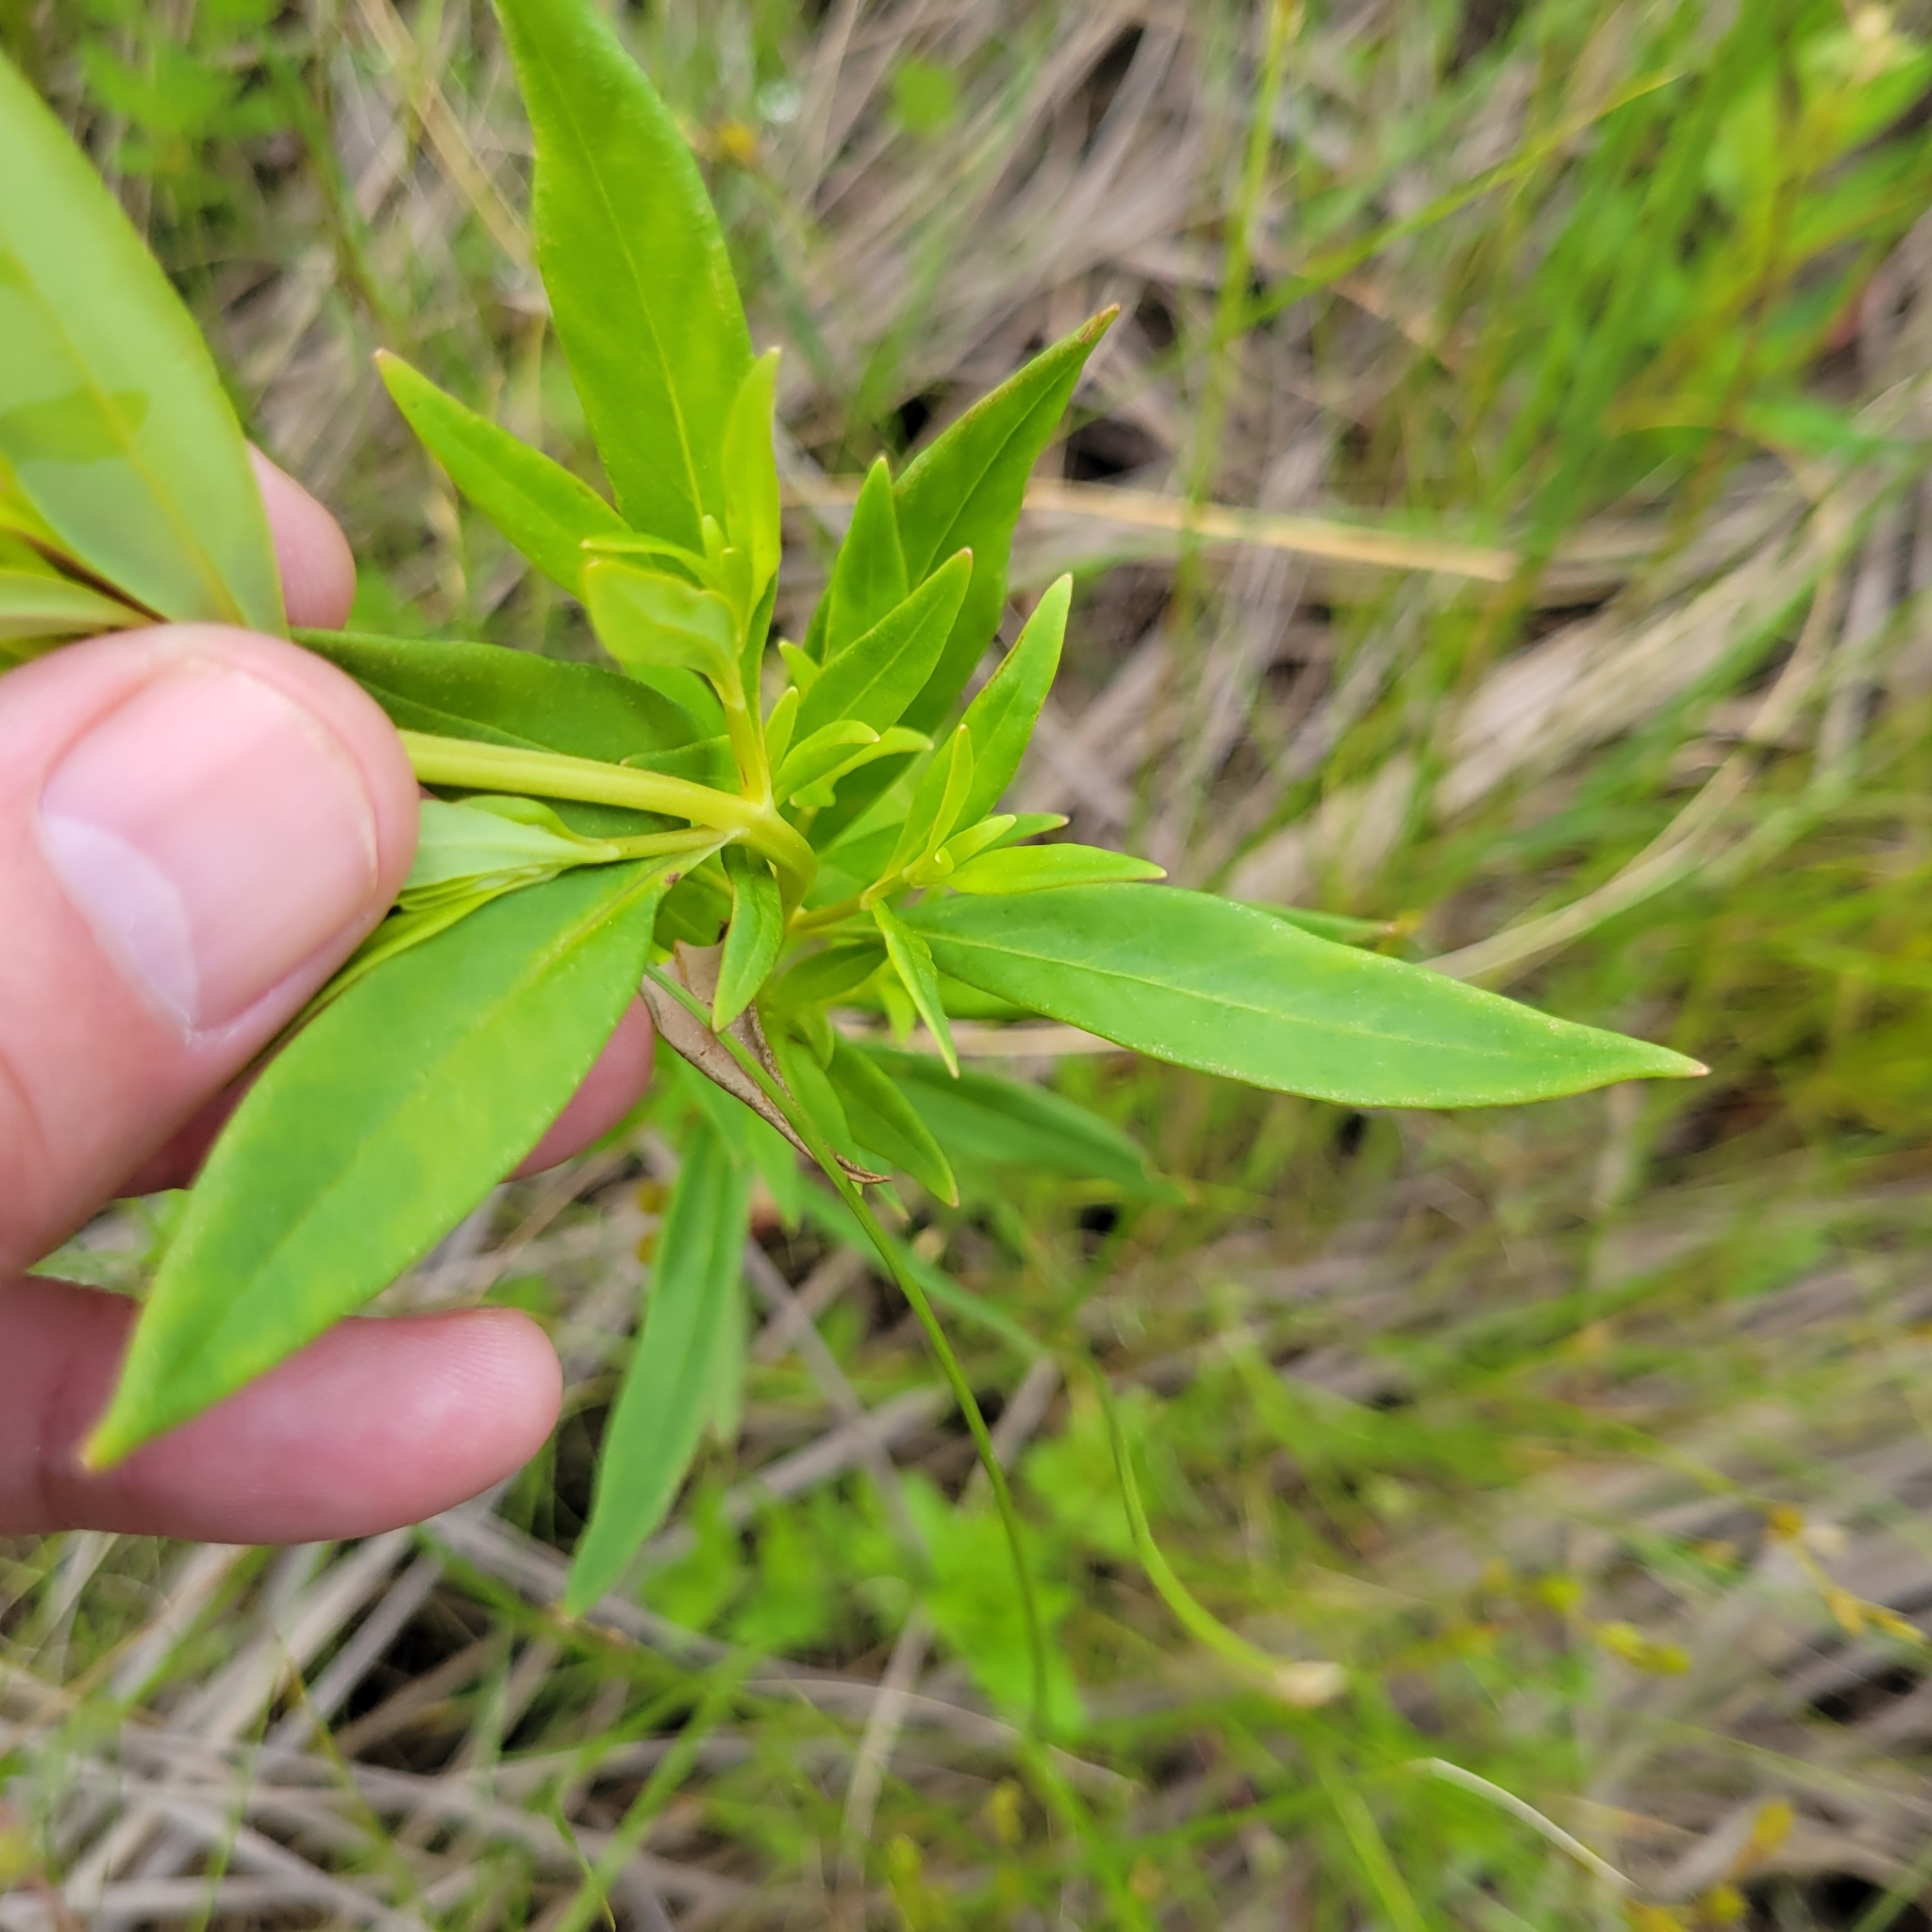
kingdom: Plantae
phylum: Tracheophyta
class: Magnoliopsida
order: Ericales
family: Primulaceae
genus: Lysimachia
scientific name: Lysimachia terrestris
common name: Lake loosestrife
